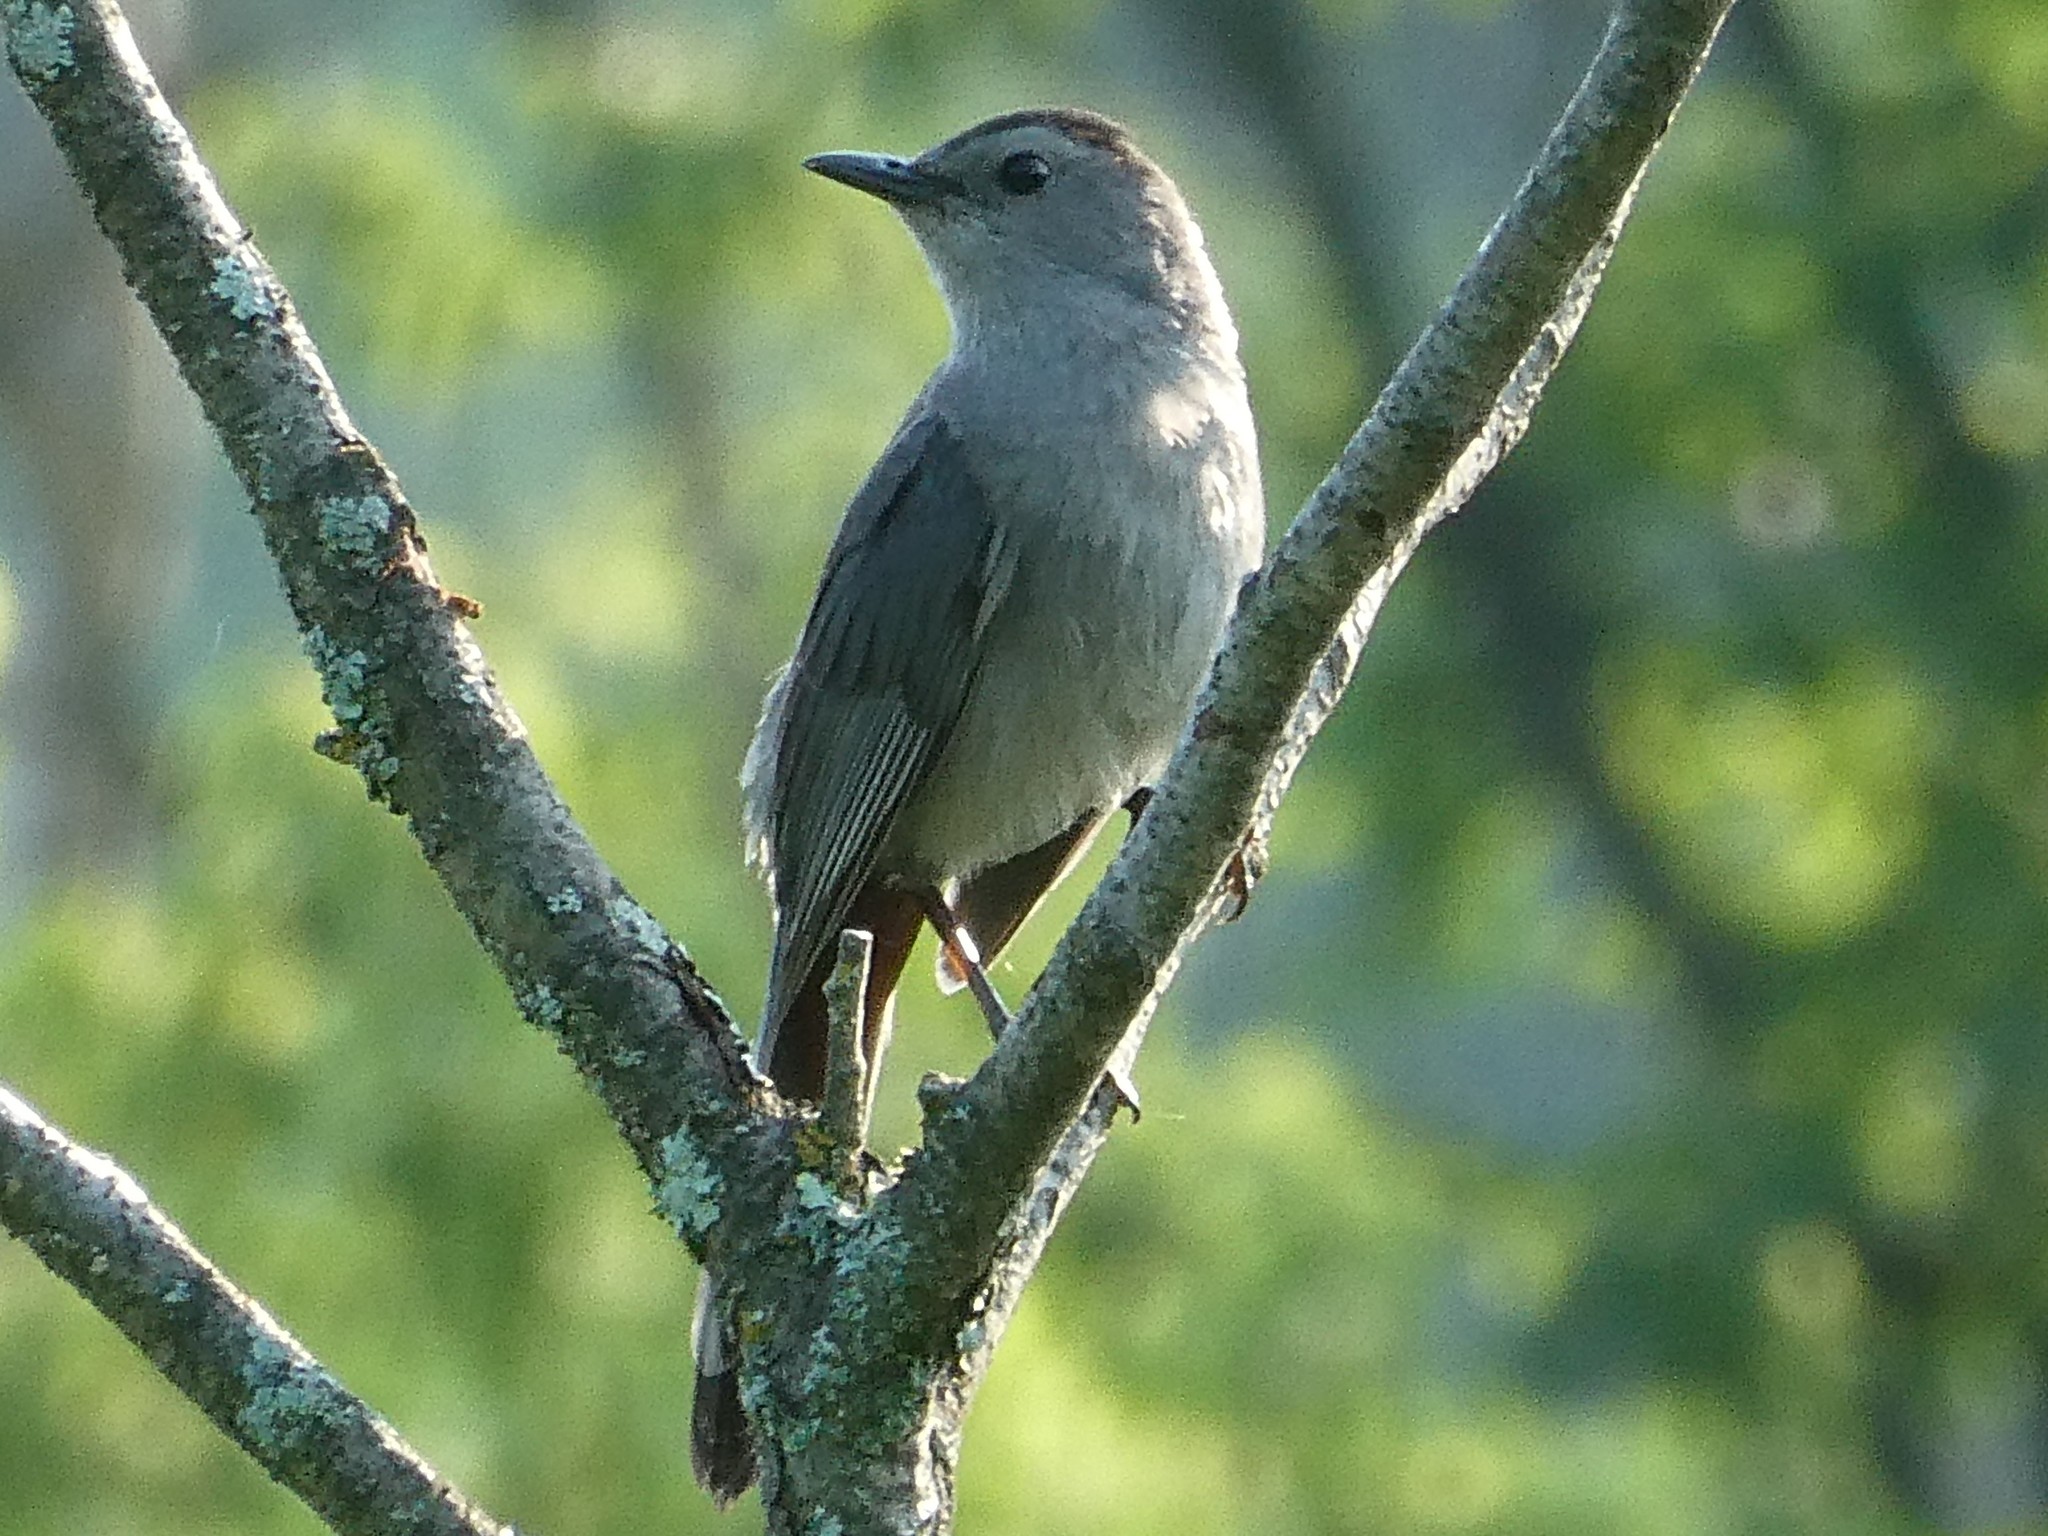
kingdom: Animalia
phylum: Chordata
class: Aves
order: Passeriformes
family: Mimidae
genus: Dumetella
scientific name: Dumetella carolinensis
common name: Gray catbird
